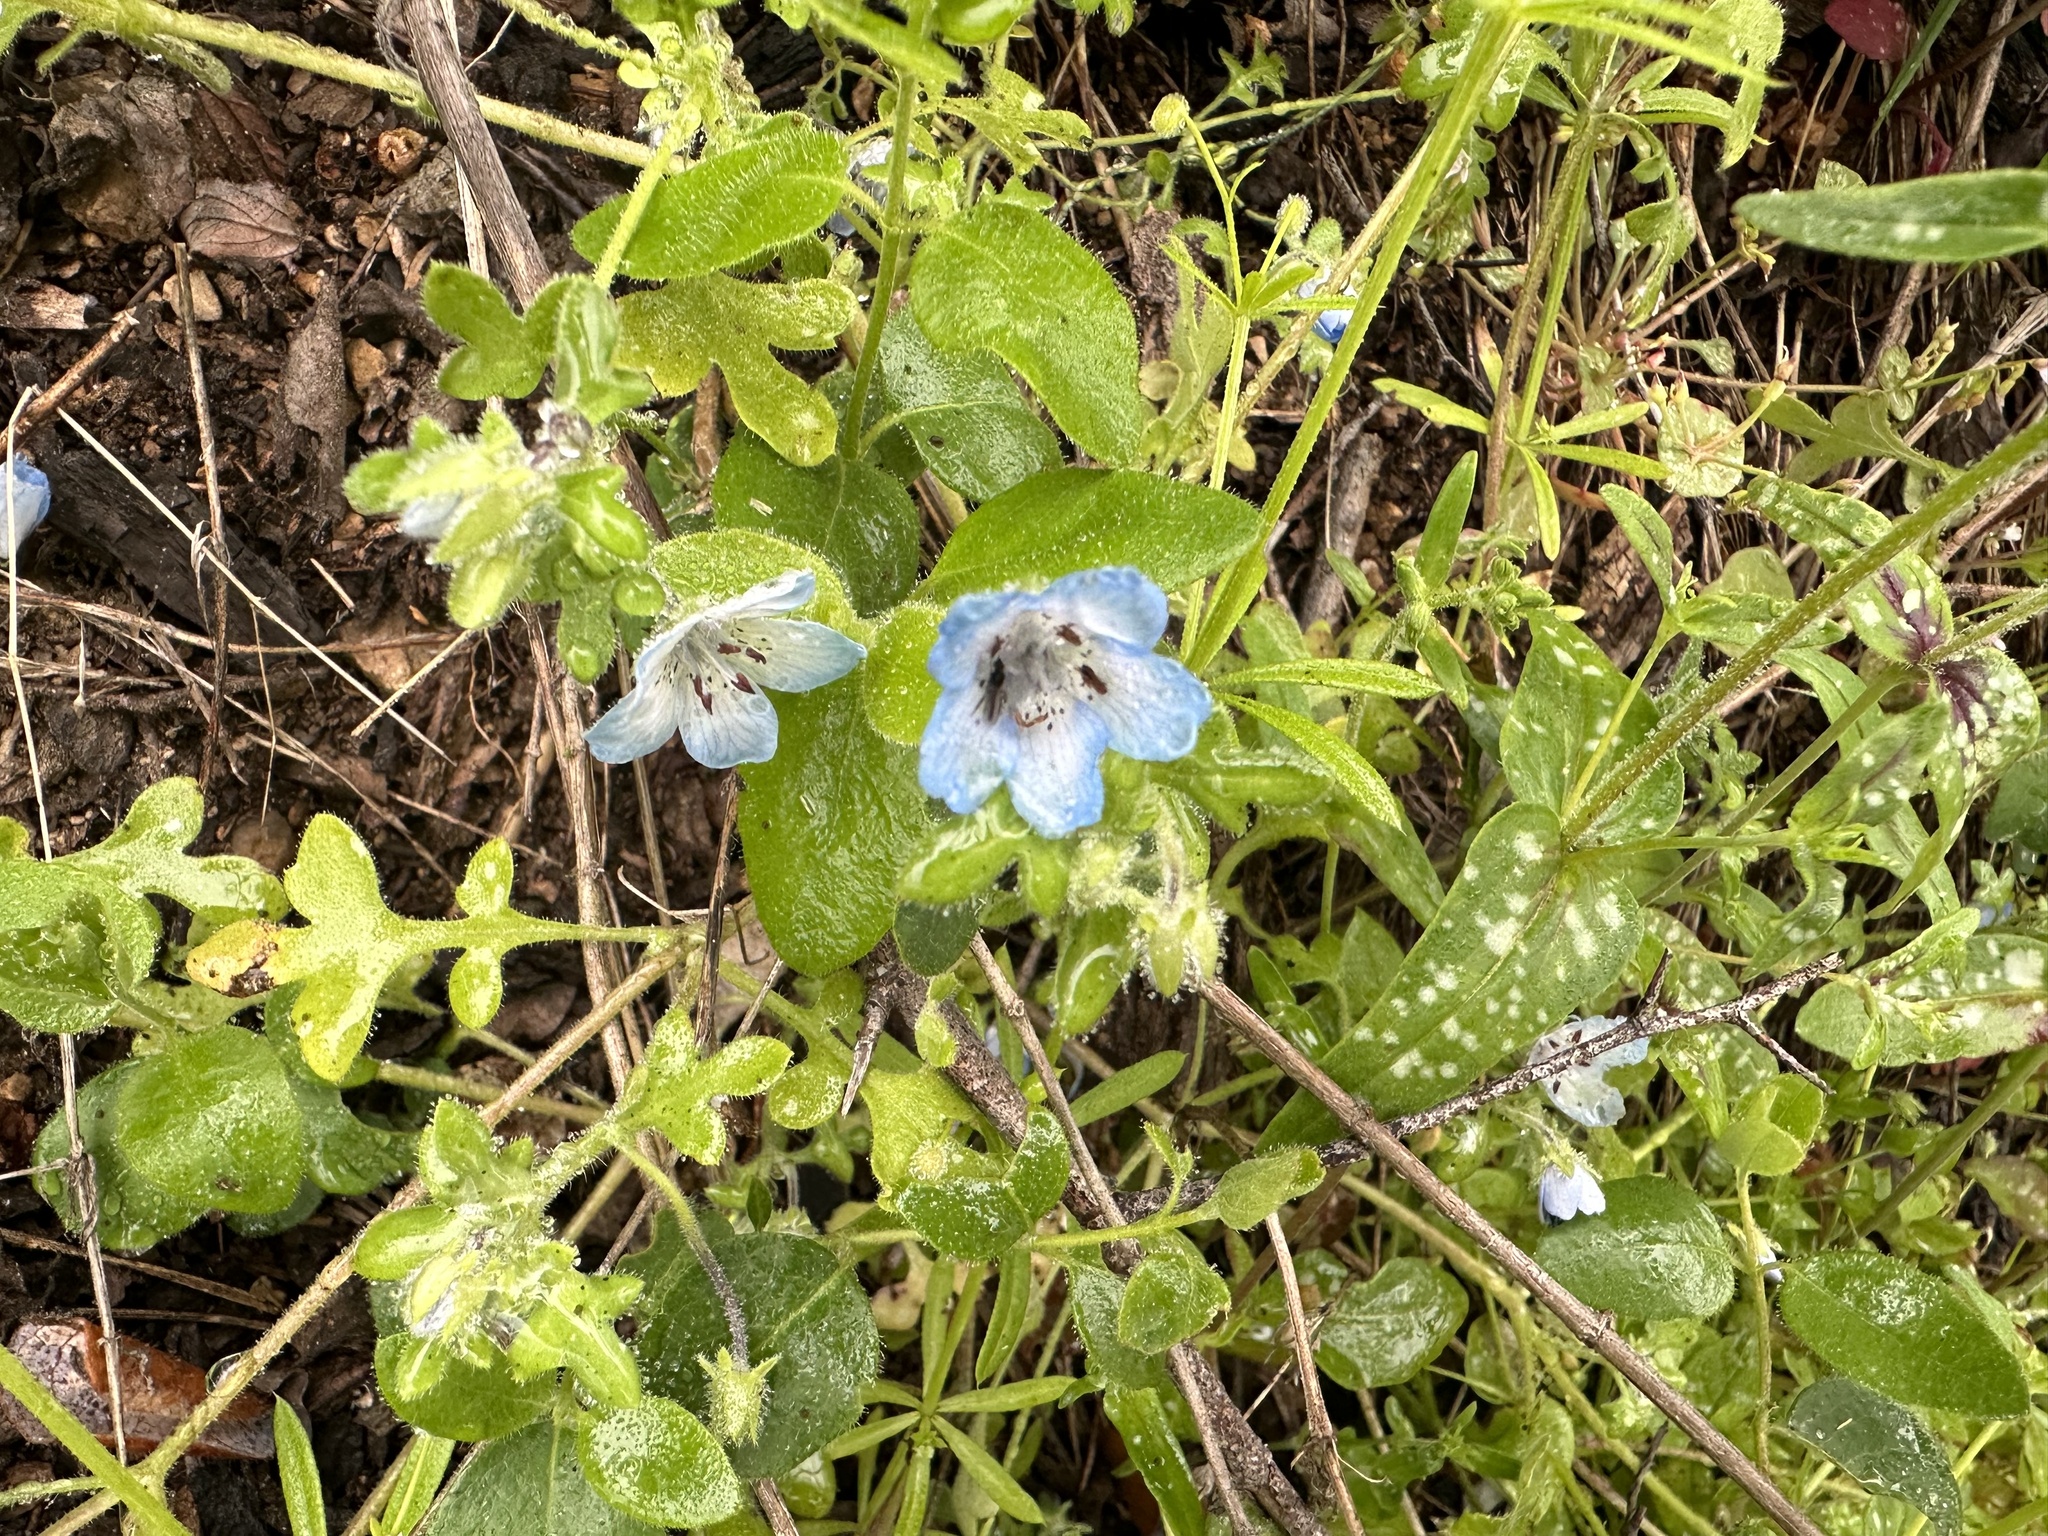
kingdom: Plantae
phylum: Tracheophyta
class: Magnoliopsida
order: Boraginales
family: Hydrophyllaceae
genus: Nemophila
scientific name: Nemophila menziesii
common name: Baby's-blue-eyes
